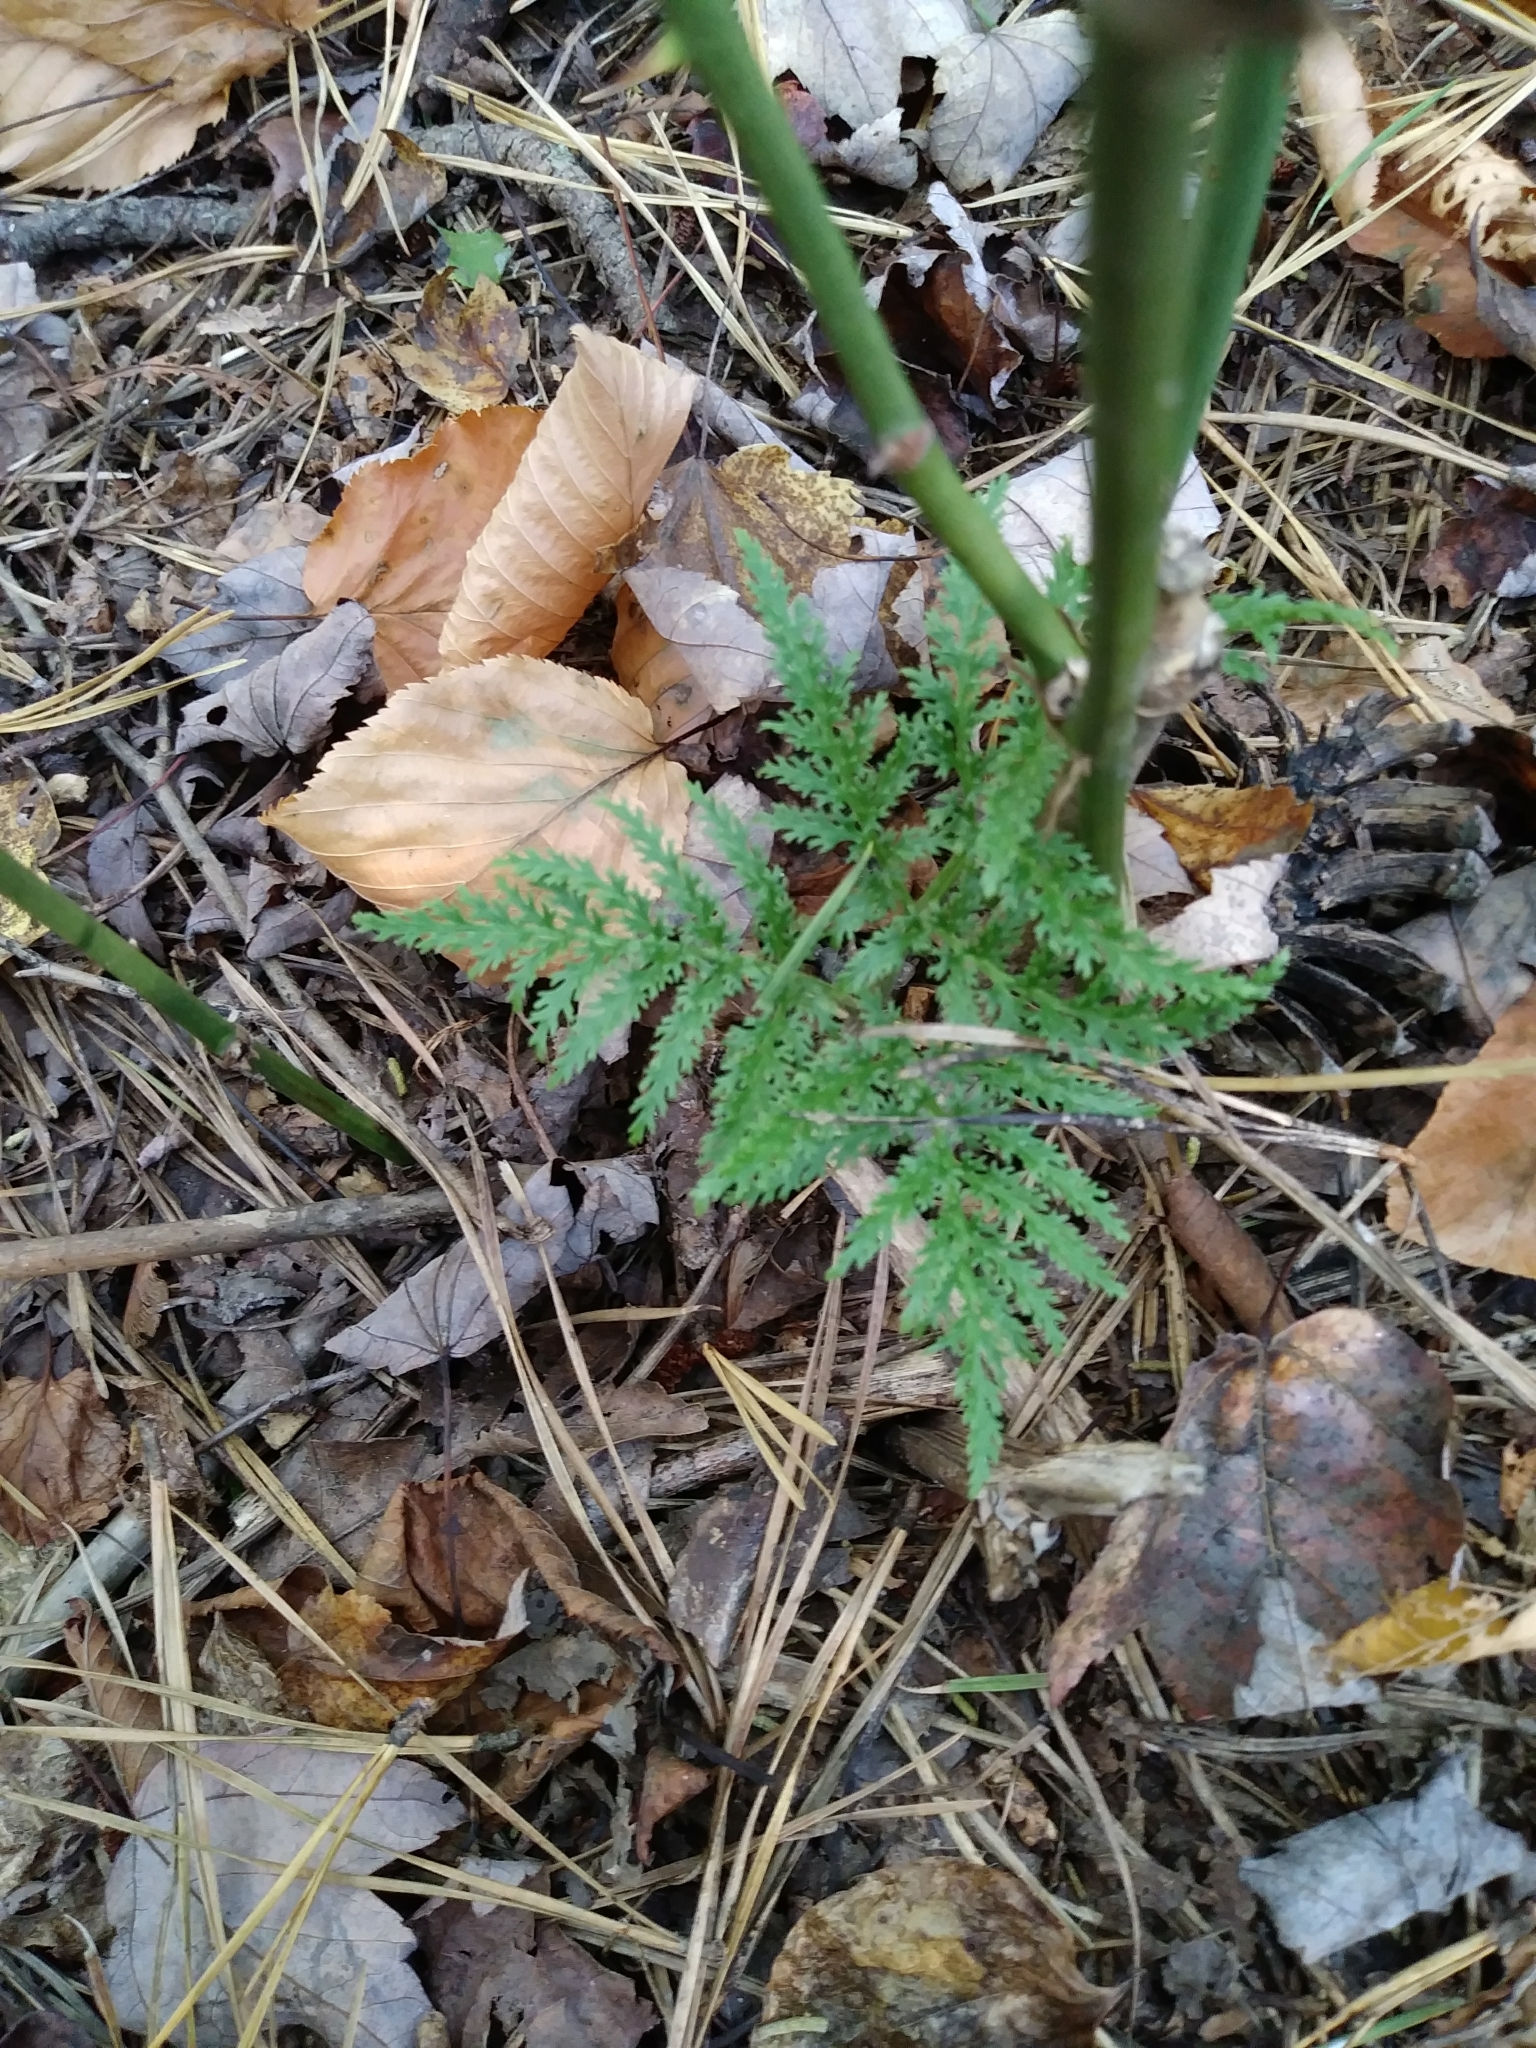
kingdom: Plantae
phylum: Tracheophyta
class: Polypodiopsida
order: Ophioglossales
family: Ophioglossaceae
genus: Sceptridium
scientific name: Sceptridium dissectum
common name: Cut-leaved grapefern
